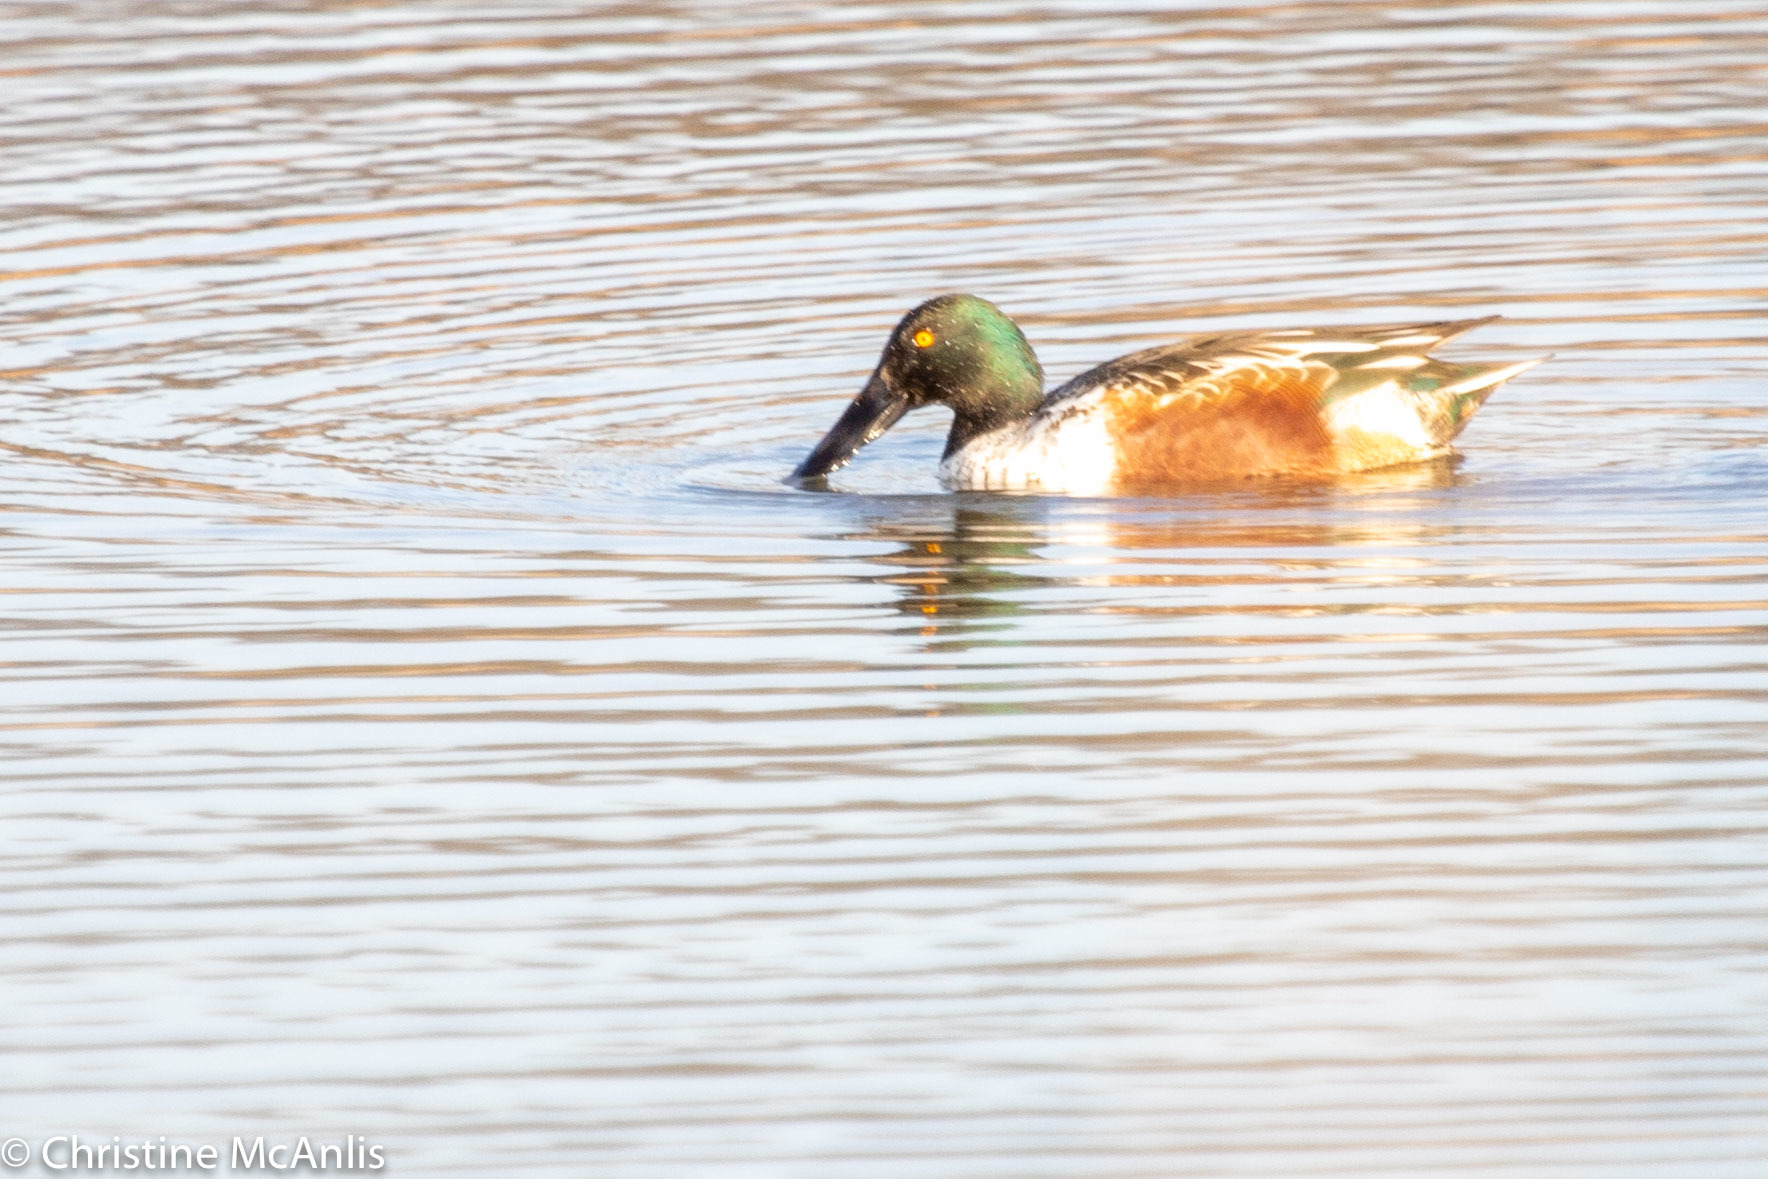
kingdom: Animalia
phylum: Chordata
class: Aves
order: Anseriformes
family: Anatidae
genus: Spatula
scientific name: Spatula clypeata
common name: Northern shoveler
